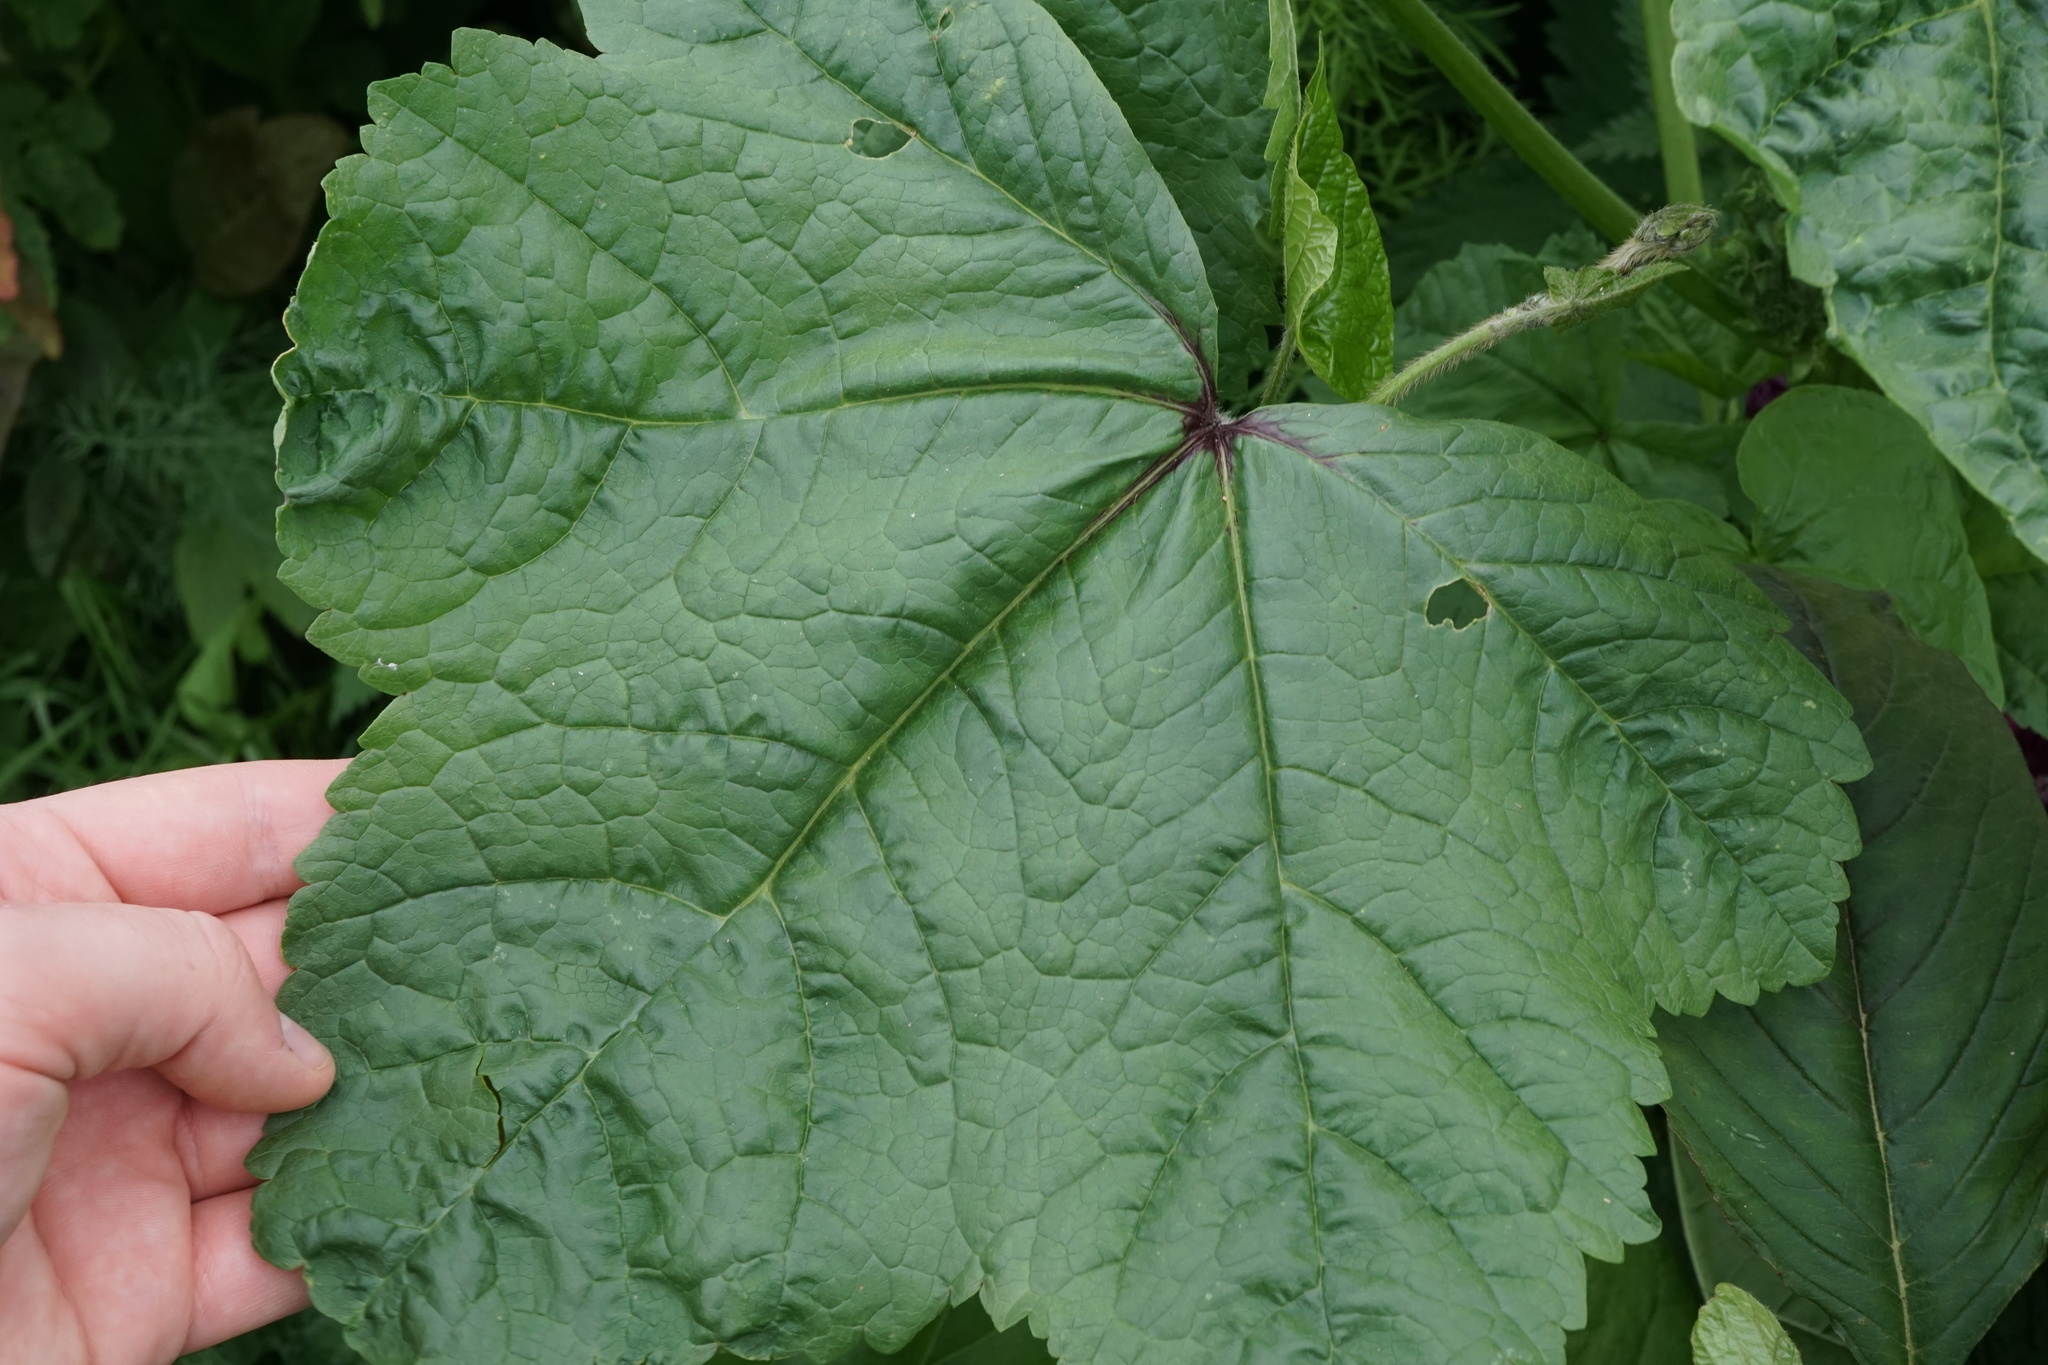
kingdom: Plantae
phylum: Tracheophyta
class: Magnoliopsida
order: Malvales
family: Malvaceae
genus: Malva
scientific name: Malva sylvestris
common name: Common mallow
